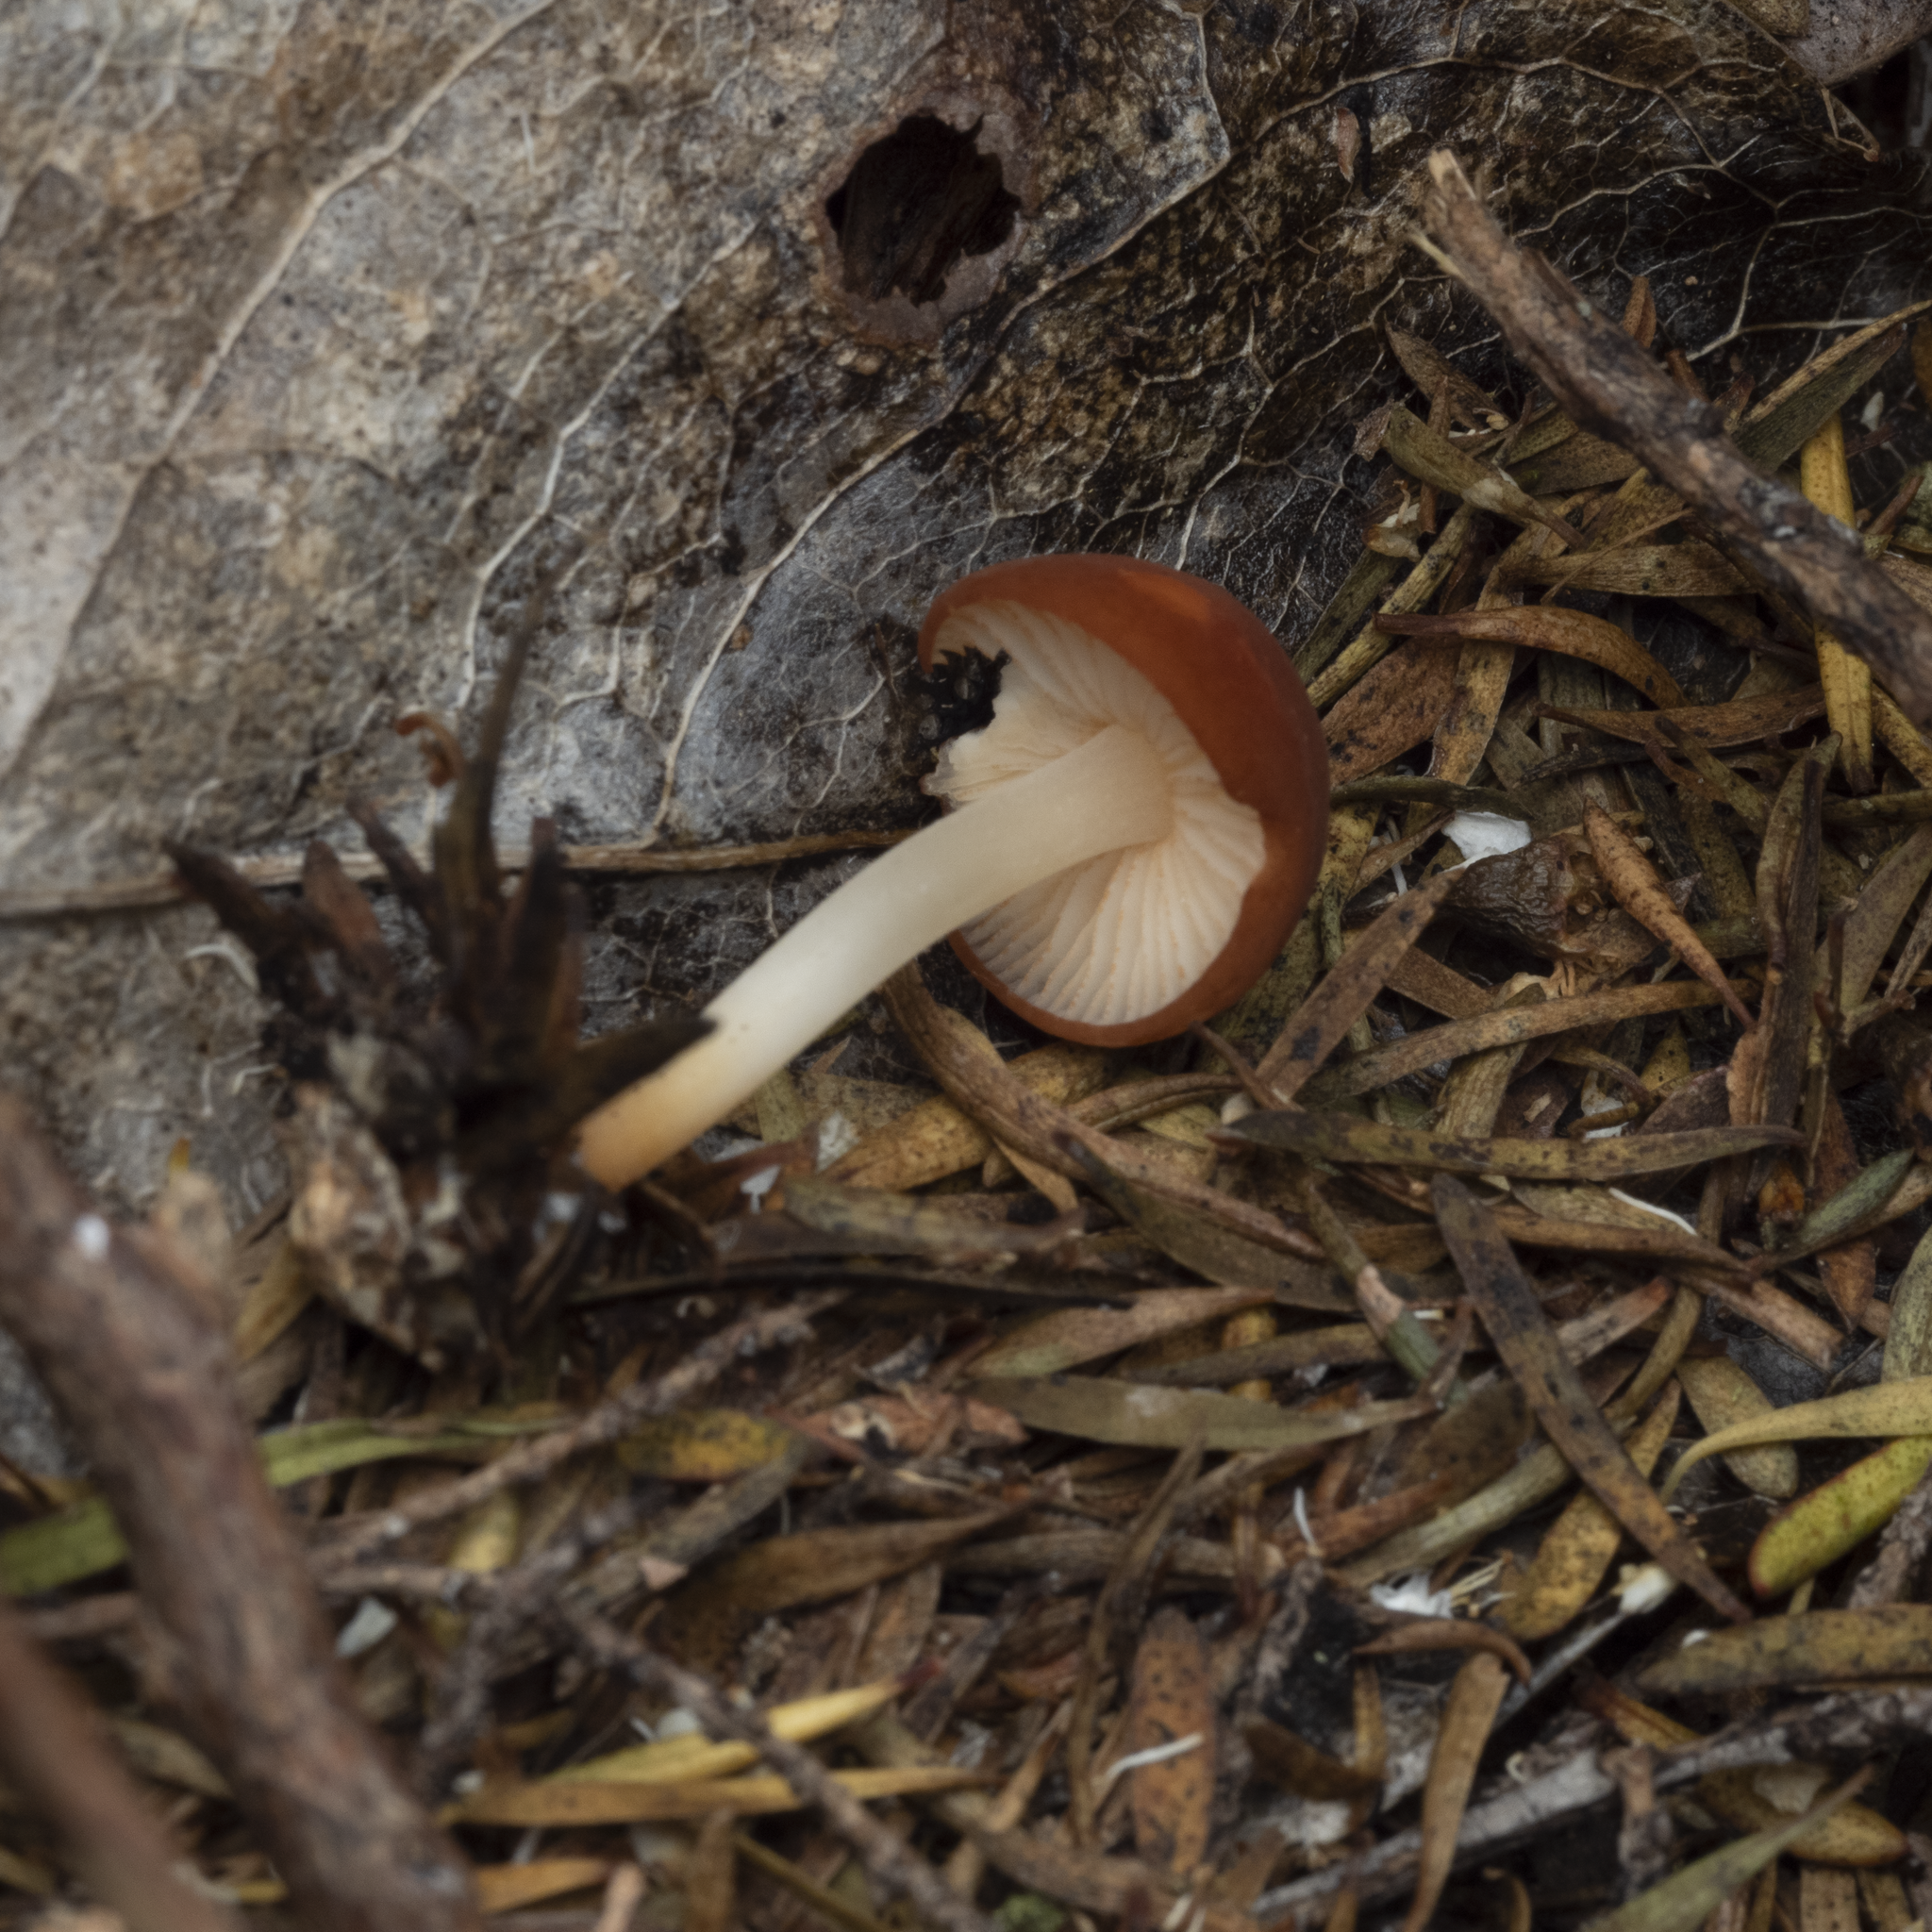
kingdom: Fungi
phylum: Basidiomycota
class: Agaricomycetes
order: Agaricales
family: Marasmiaceae
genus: Marasmius
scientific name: Marasmius elegans
